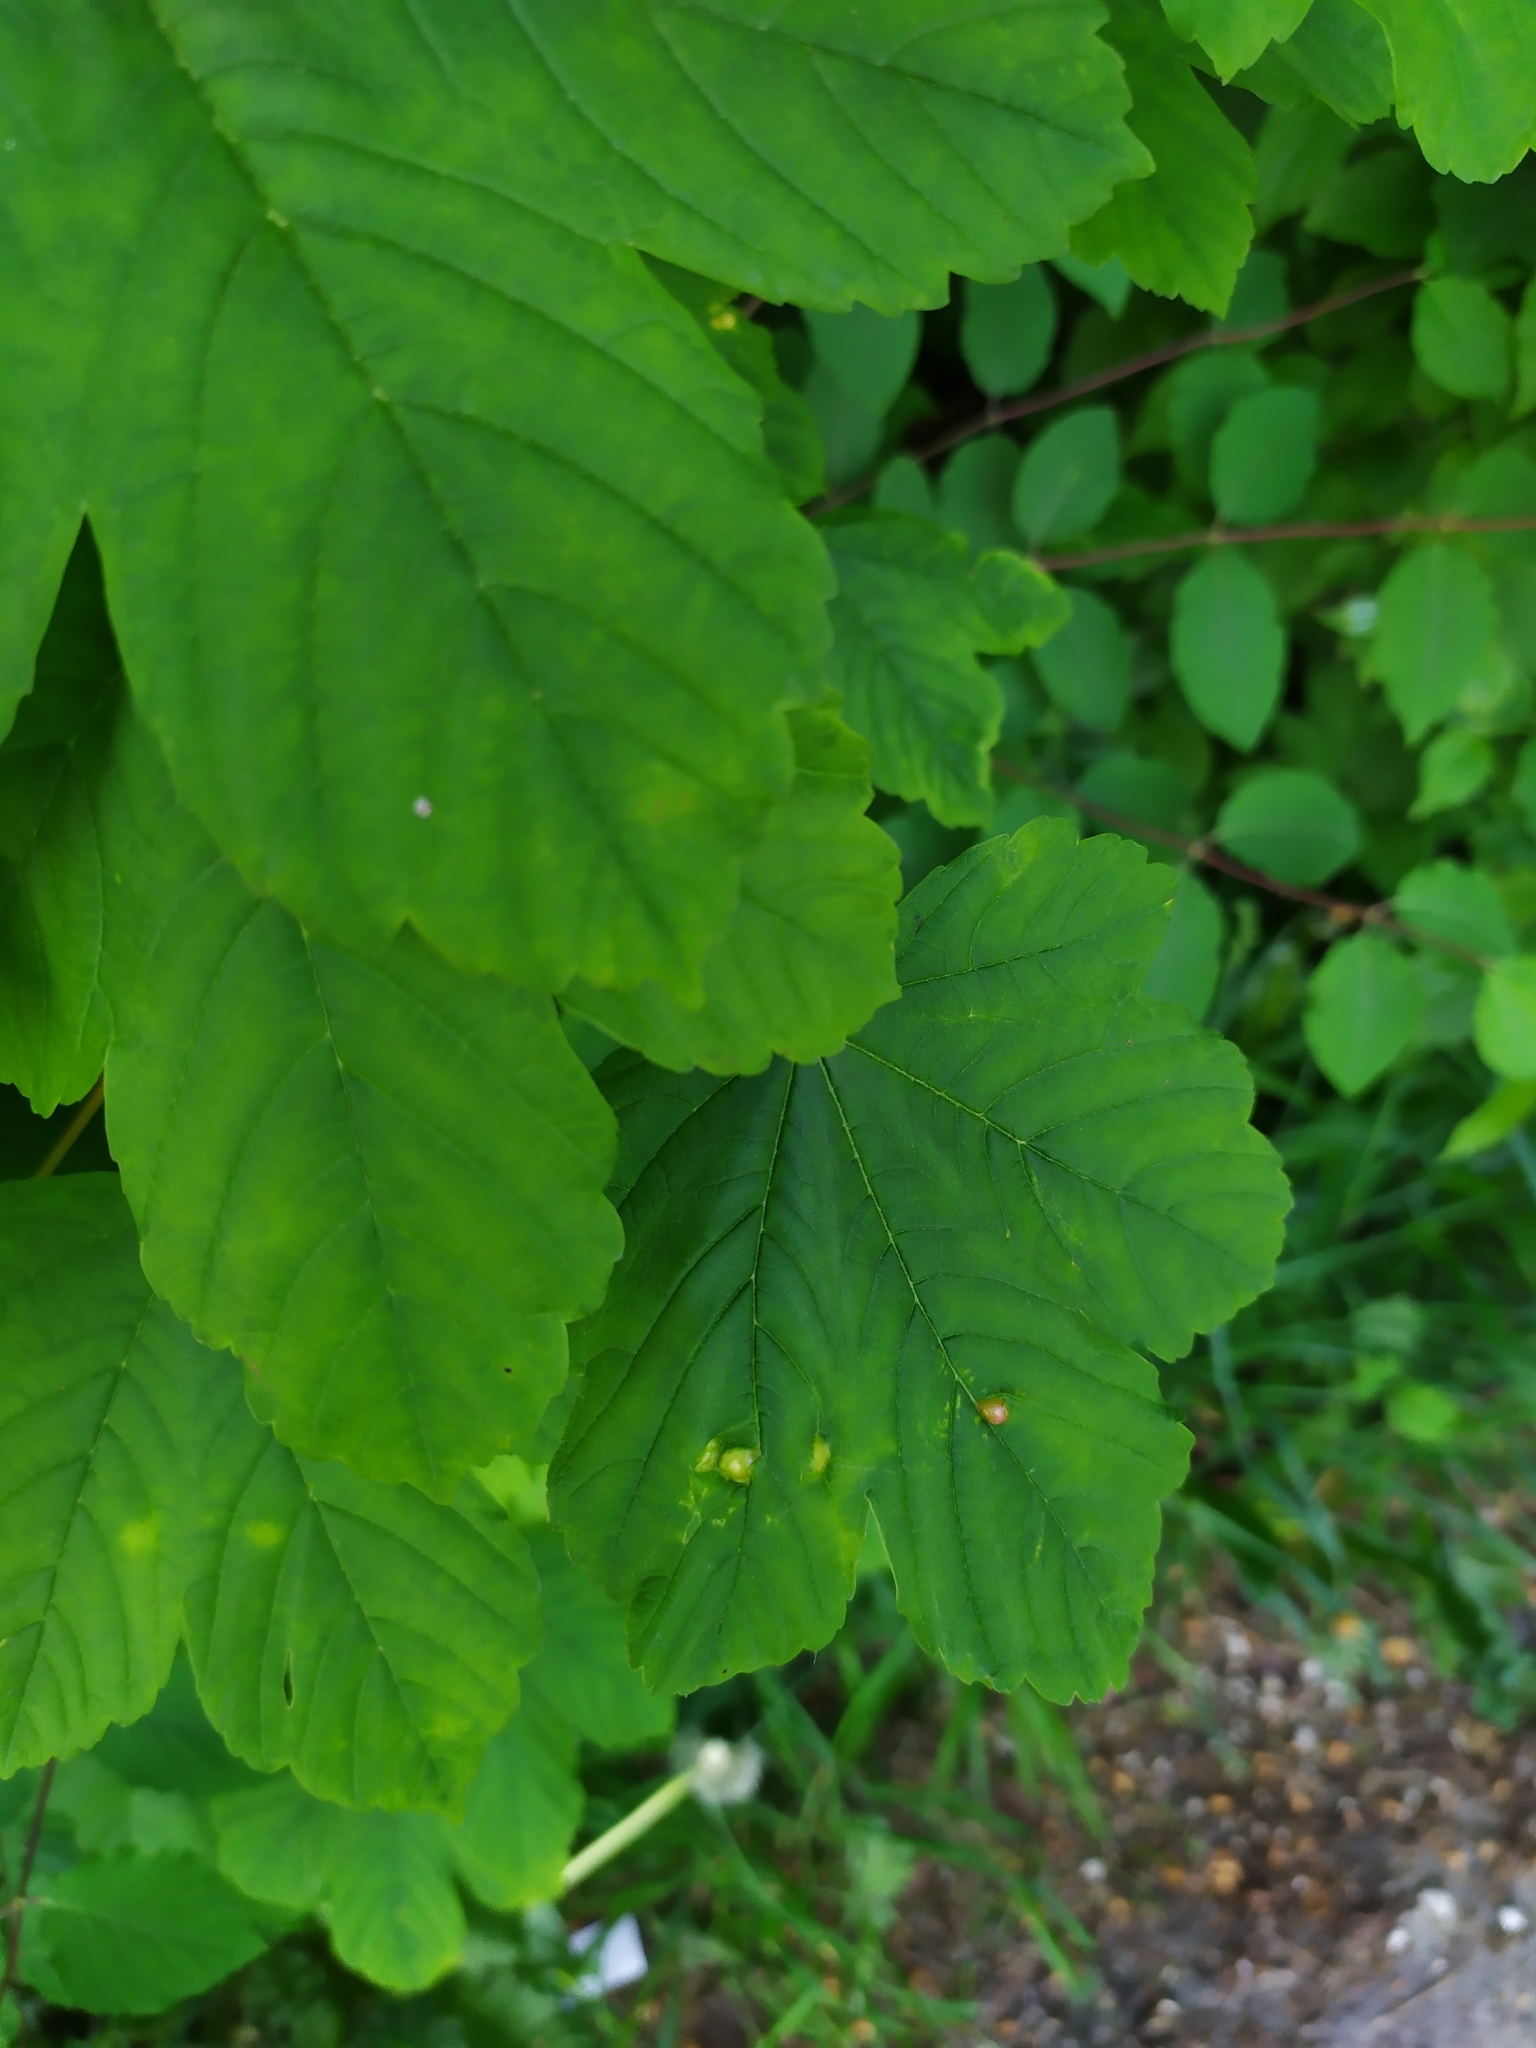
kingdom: Animalia
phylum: Arthropoda
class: Insecta
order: Hymenoptera
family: Cynipidae
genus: Pediaspis
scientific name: Pediaspis aceris
